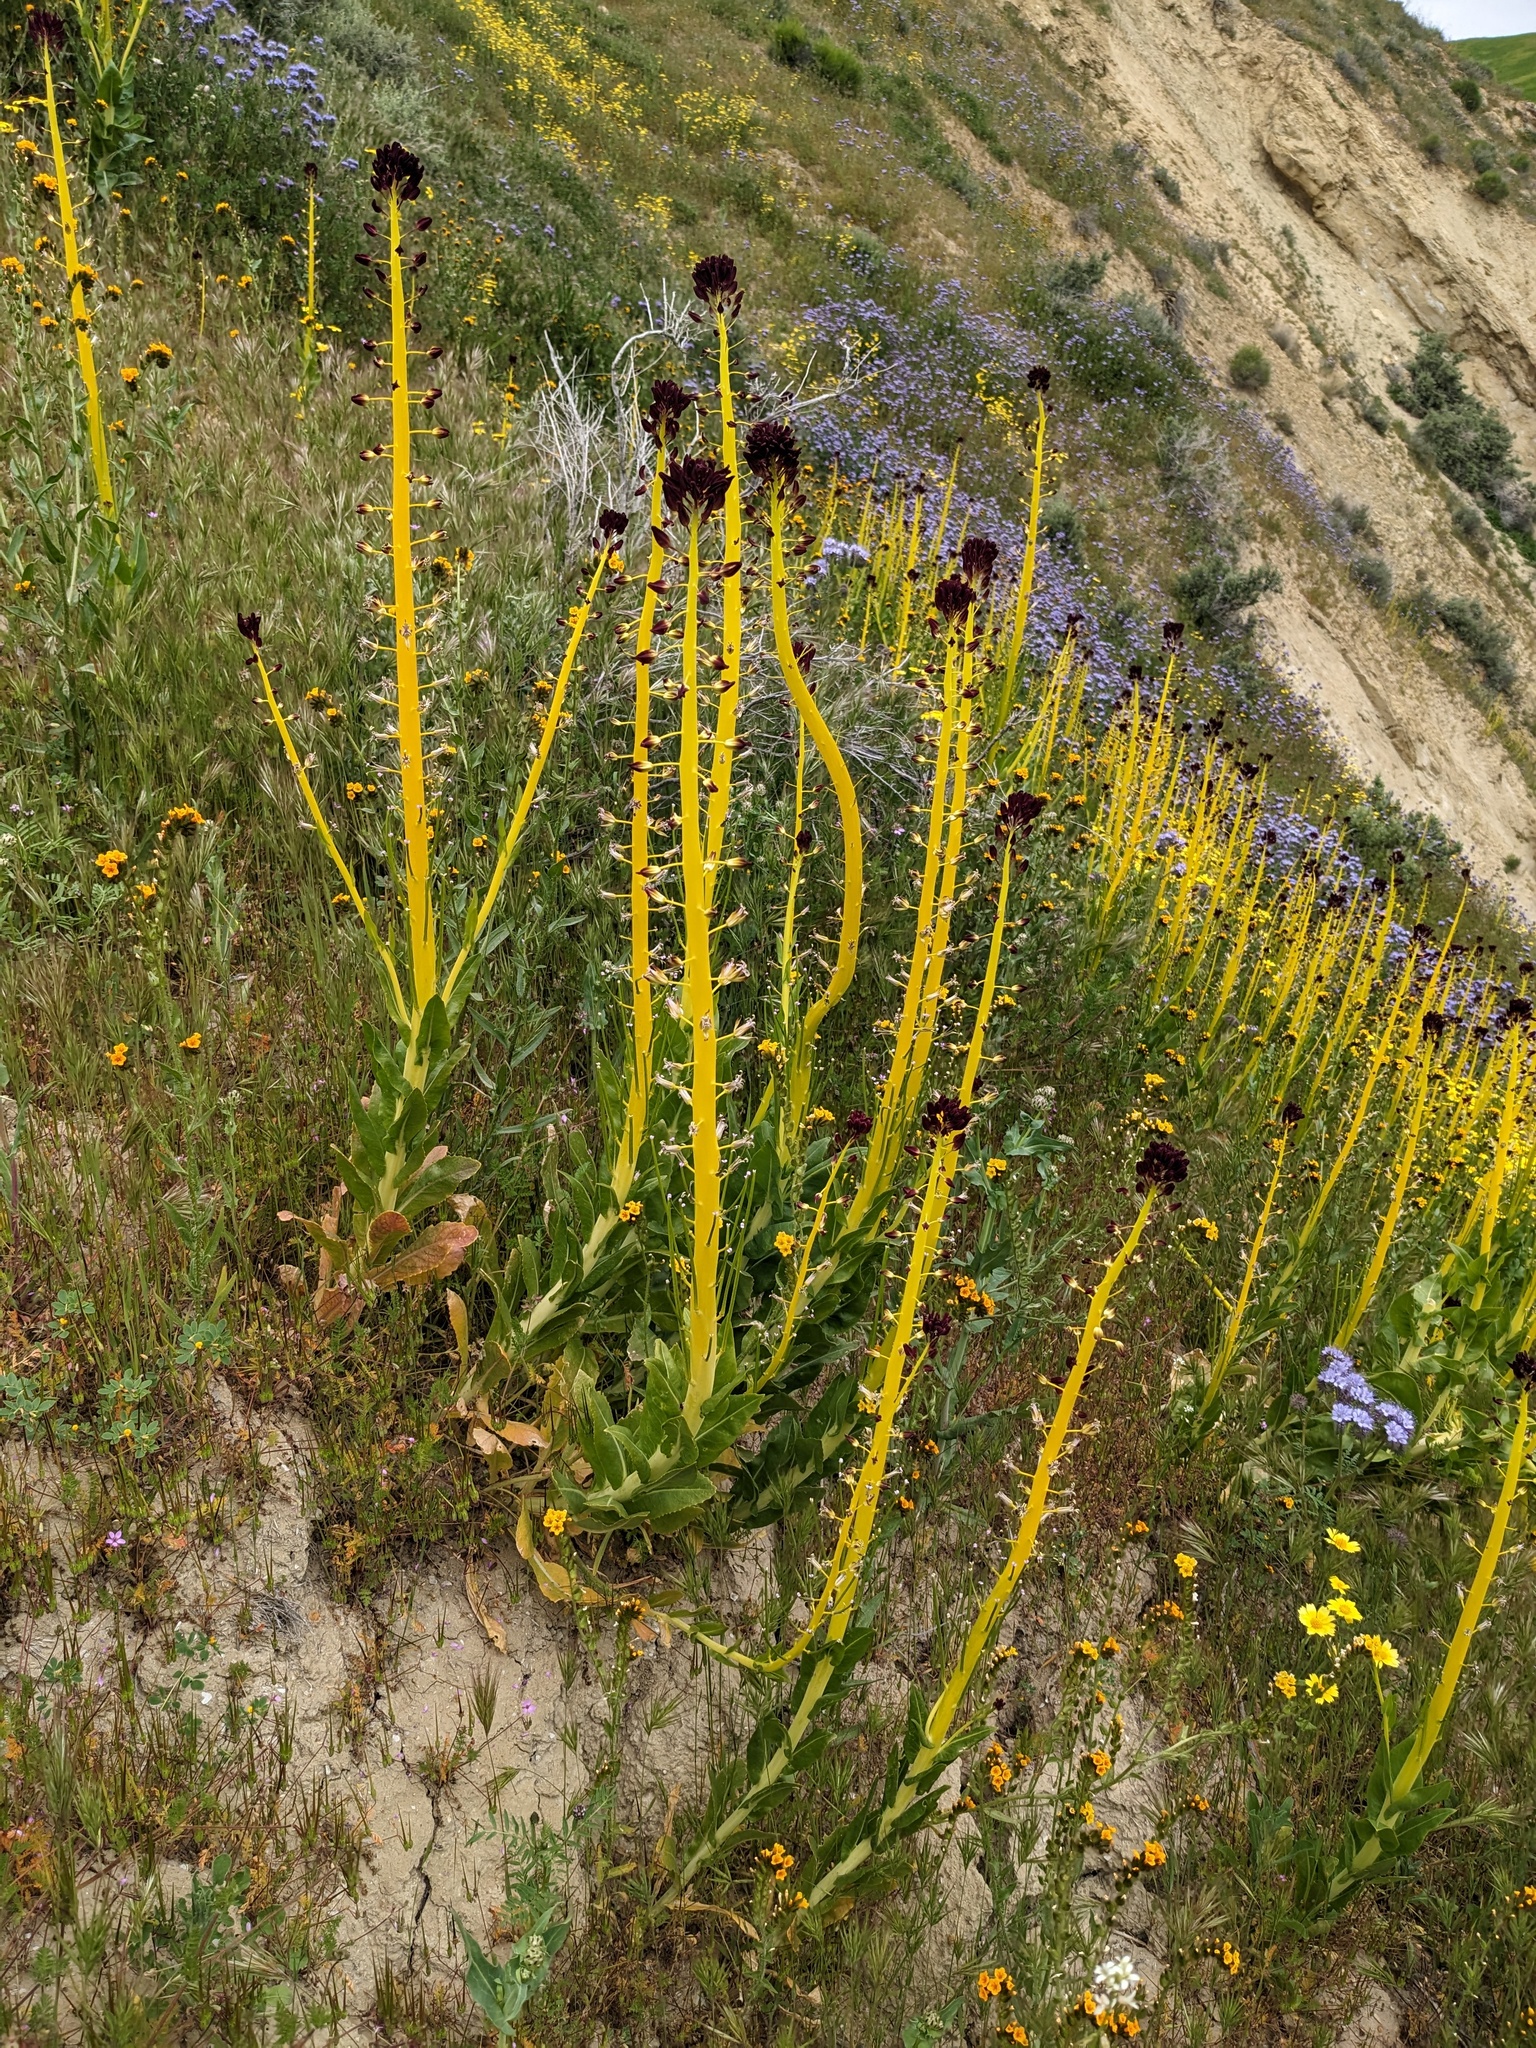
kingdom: Plantae
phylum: Tracheophyta
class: Magnoliopsida
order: Brassicales
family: Brassicaceae
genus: Streptanthus
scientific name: Streptanthus inflatus
